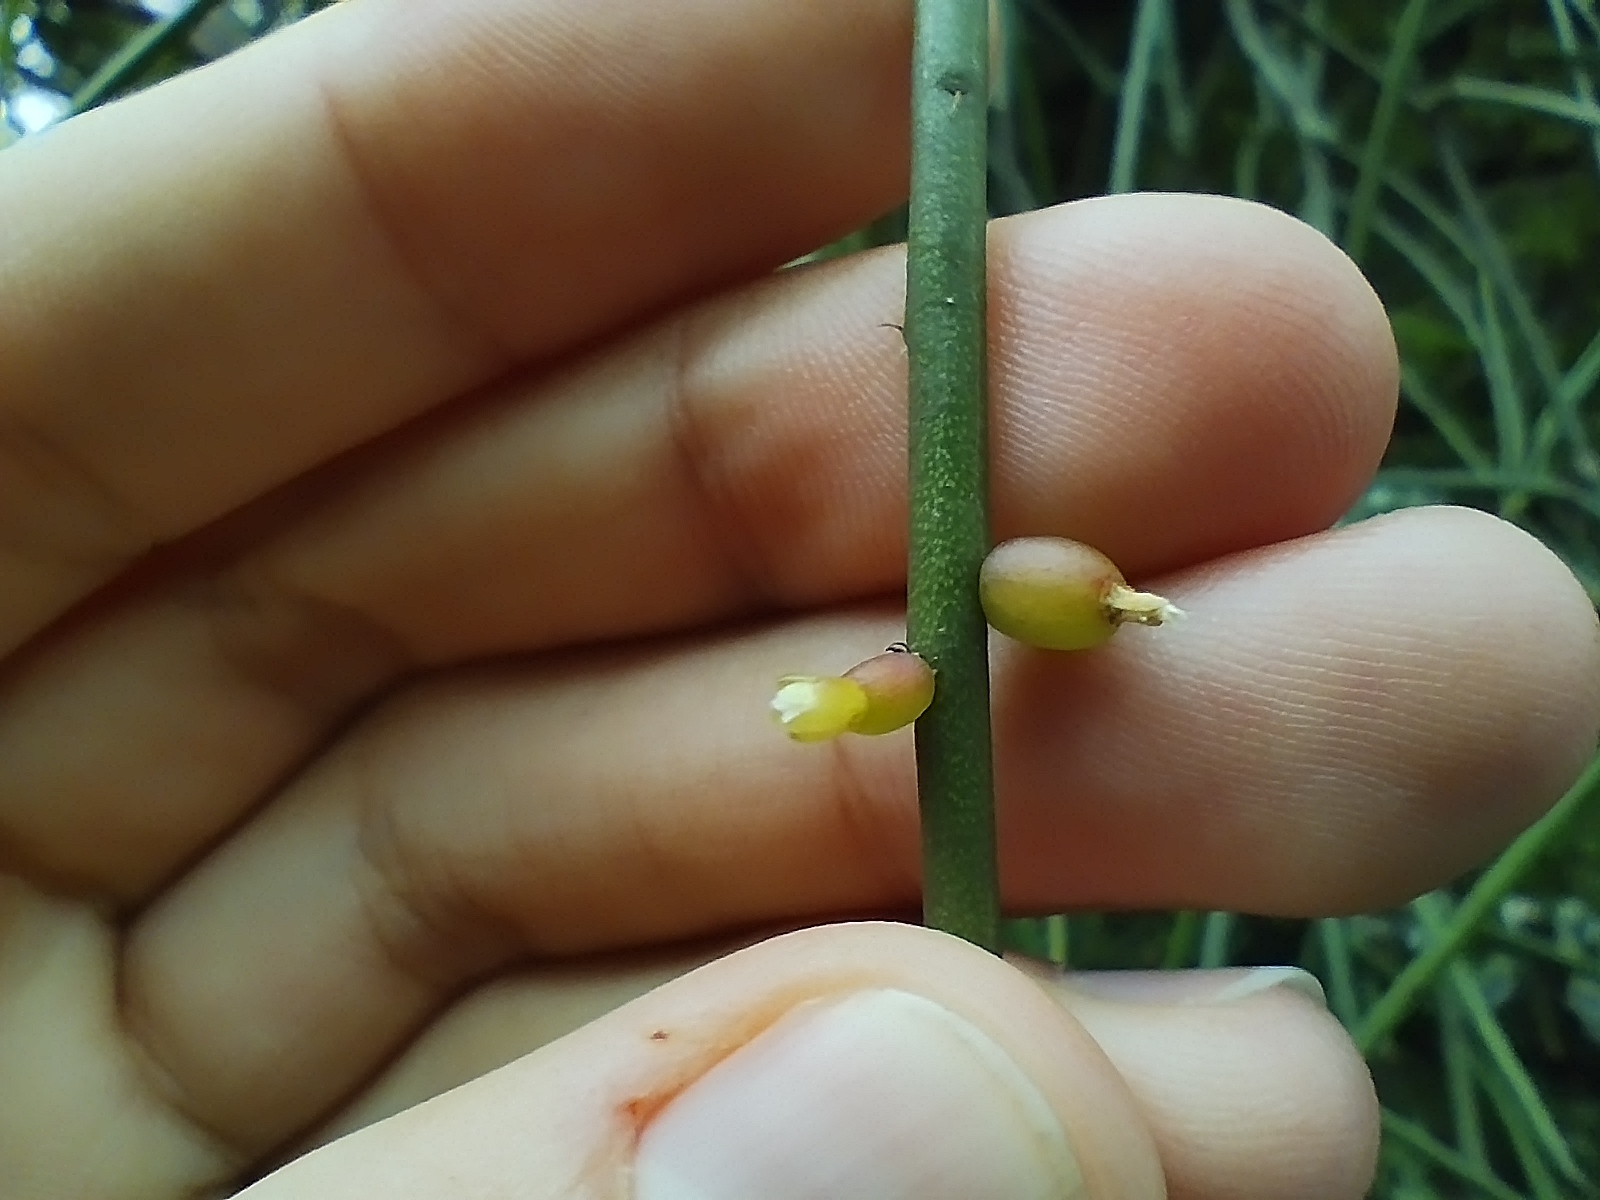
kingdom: Plantae
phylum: Tracheophyta
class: Magnoliopsida
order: Caryophyllales
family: Cactaceae
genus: Rhipsalis
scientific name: Rhipsalis baccifera
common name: Mistletoe cactus
